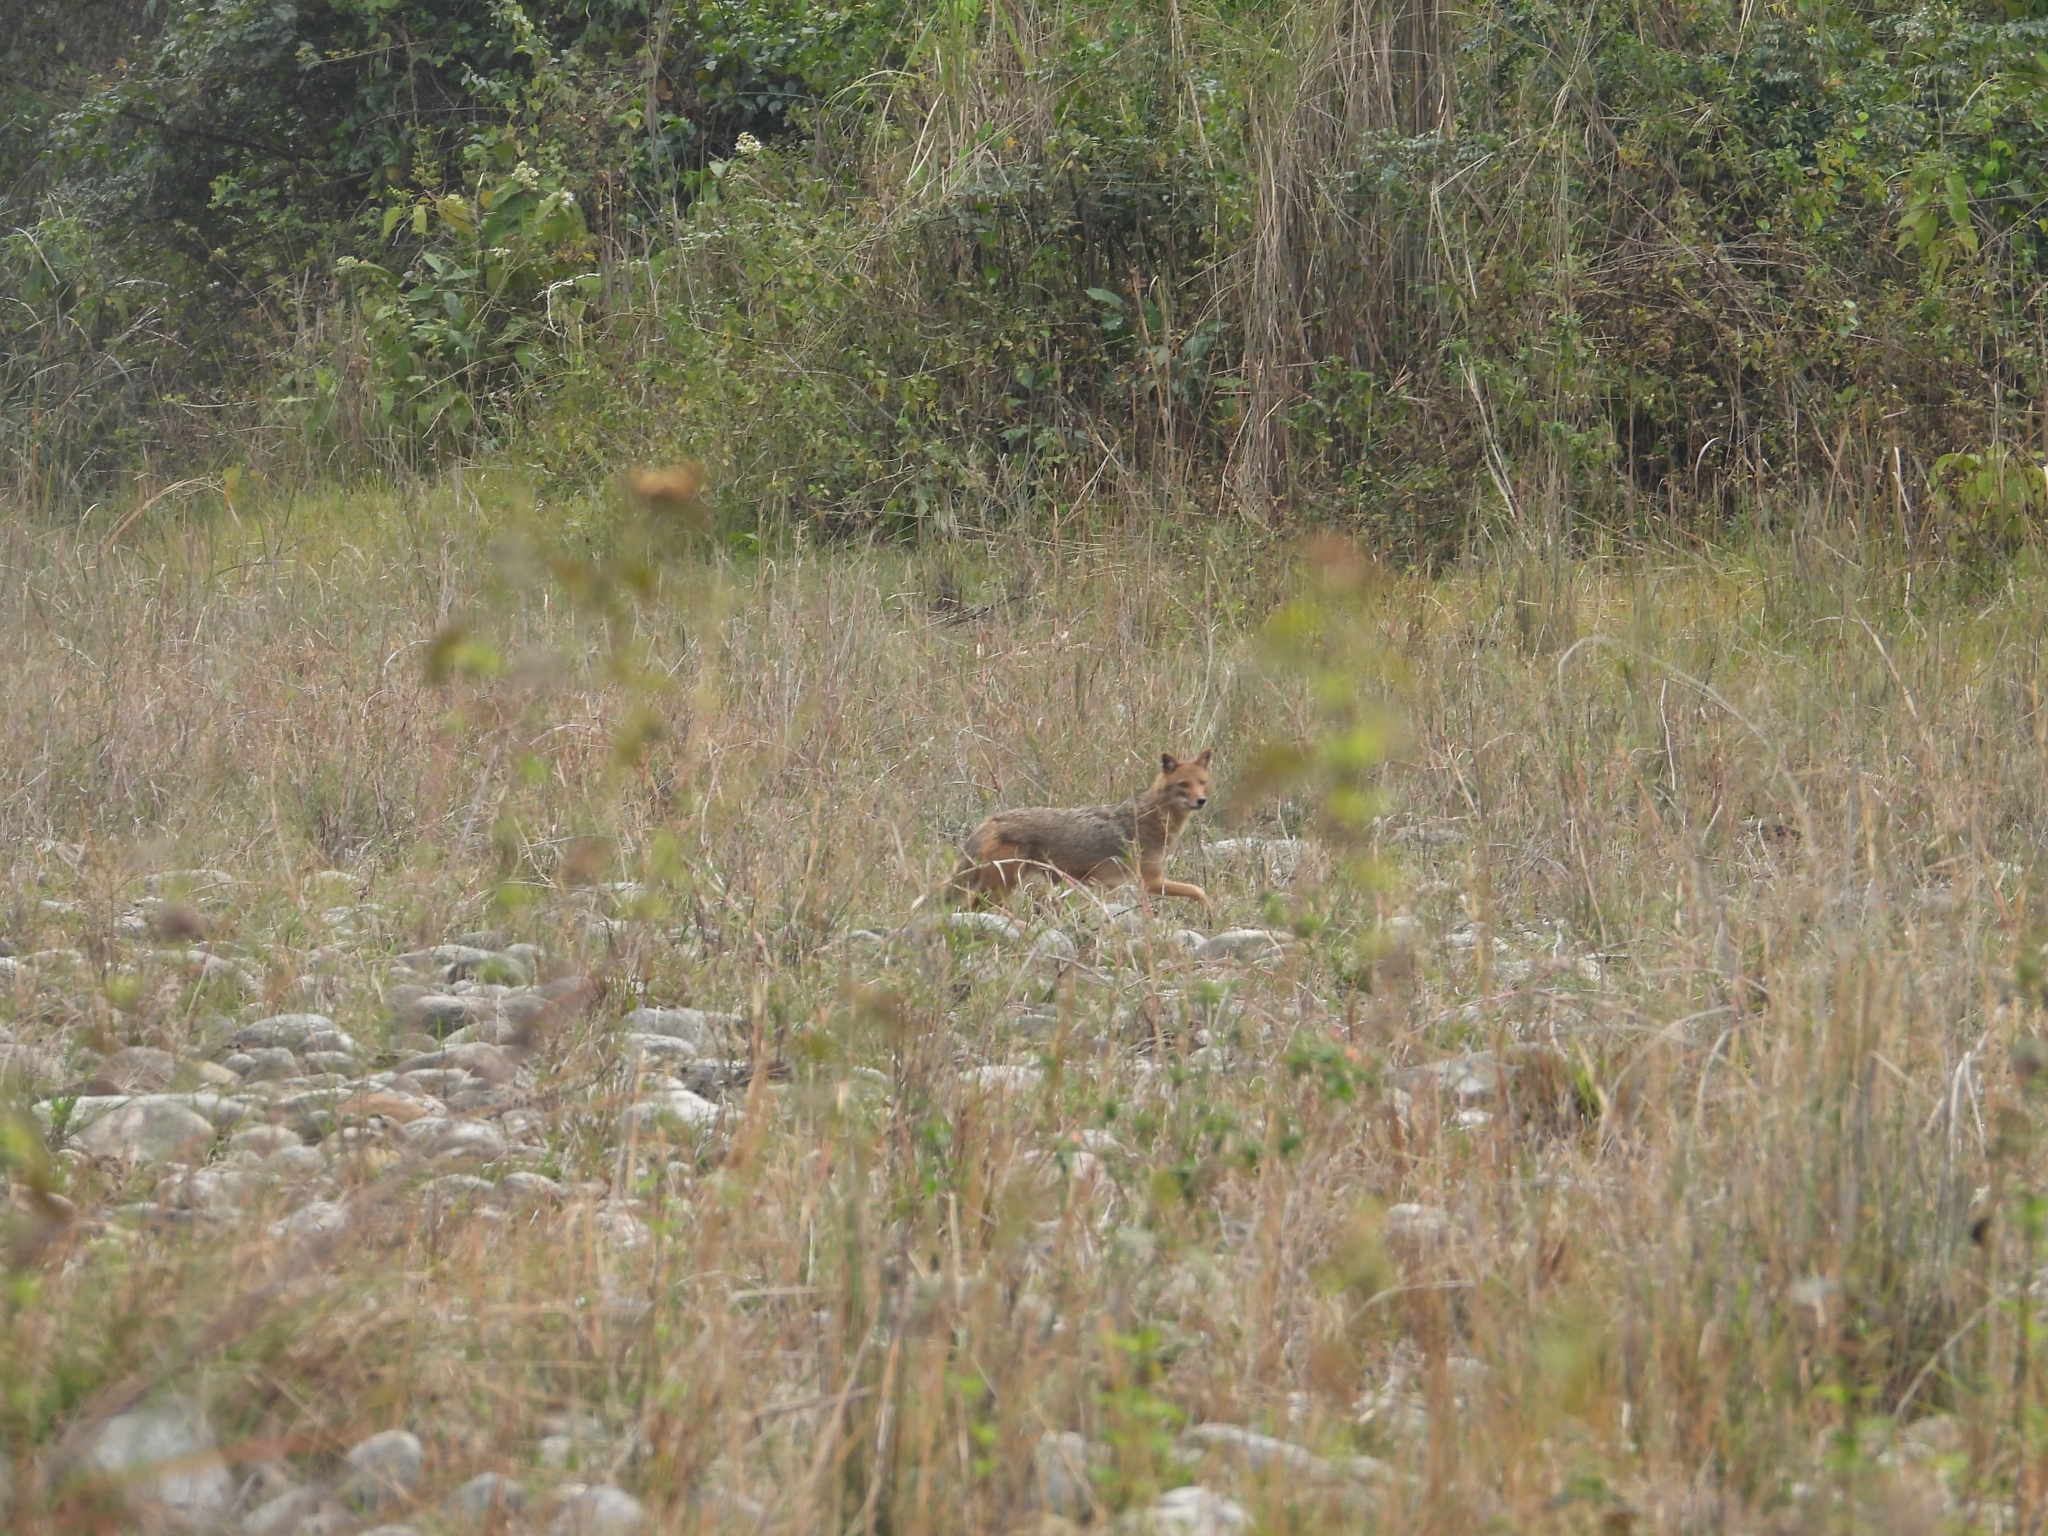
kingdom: Animalia
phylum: Chordata
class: Mammalia
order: Carnivora
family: Canidae
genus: Canis
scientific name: Canis aureus
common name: Golden jackal
